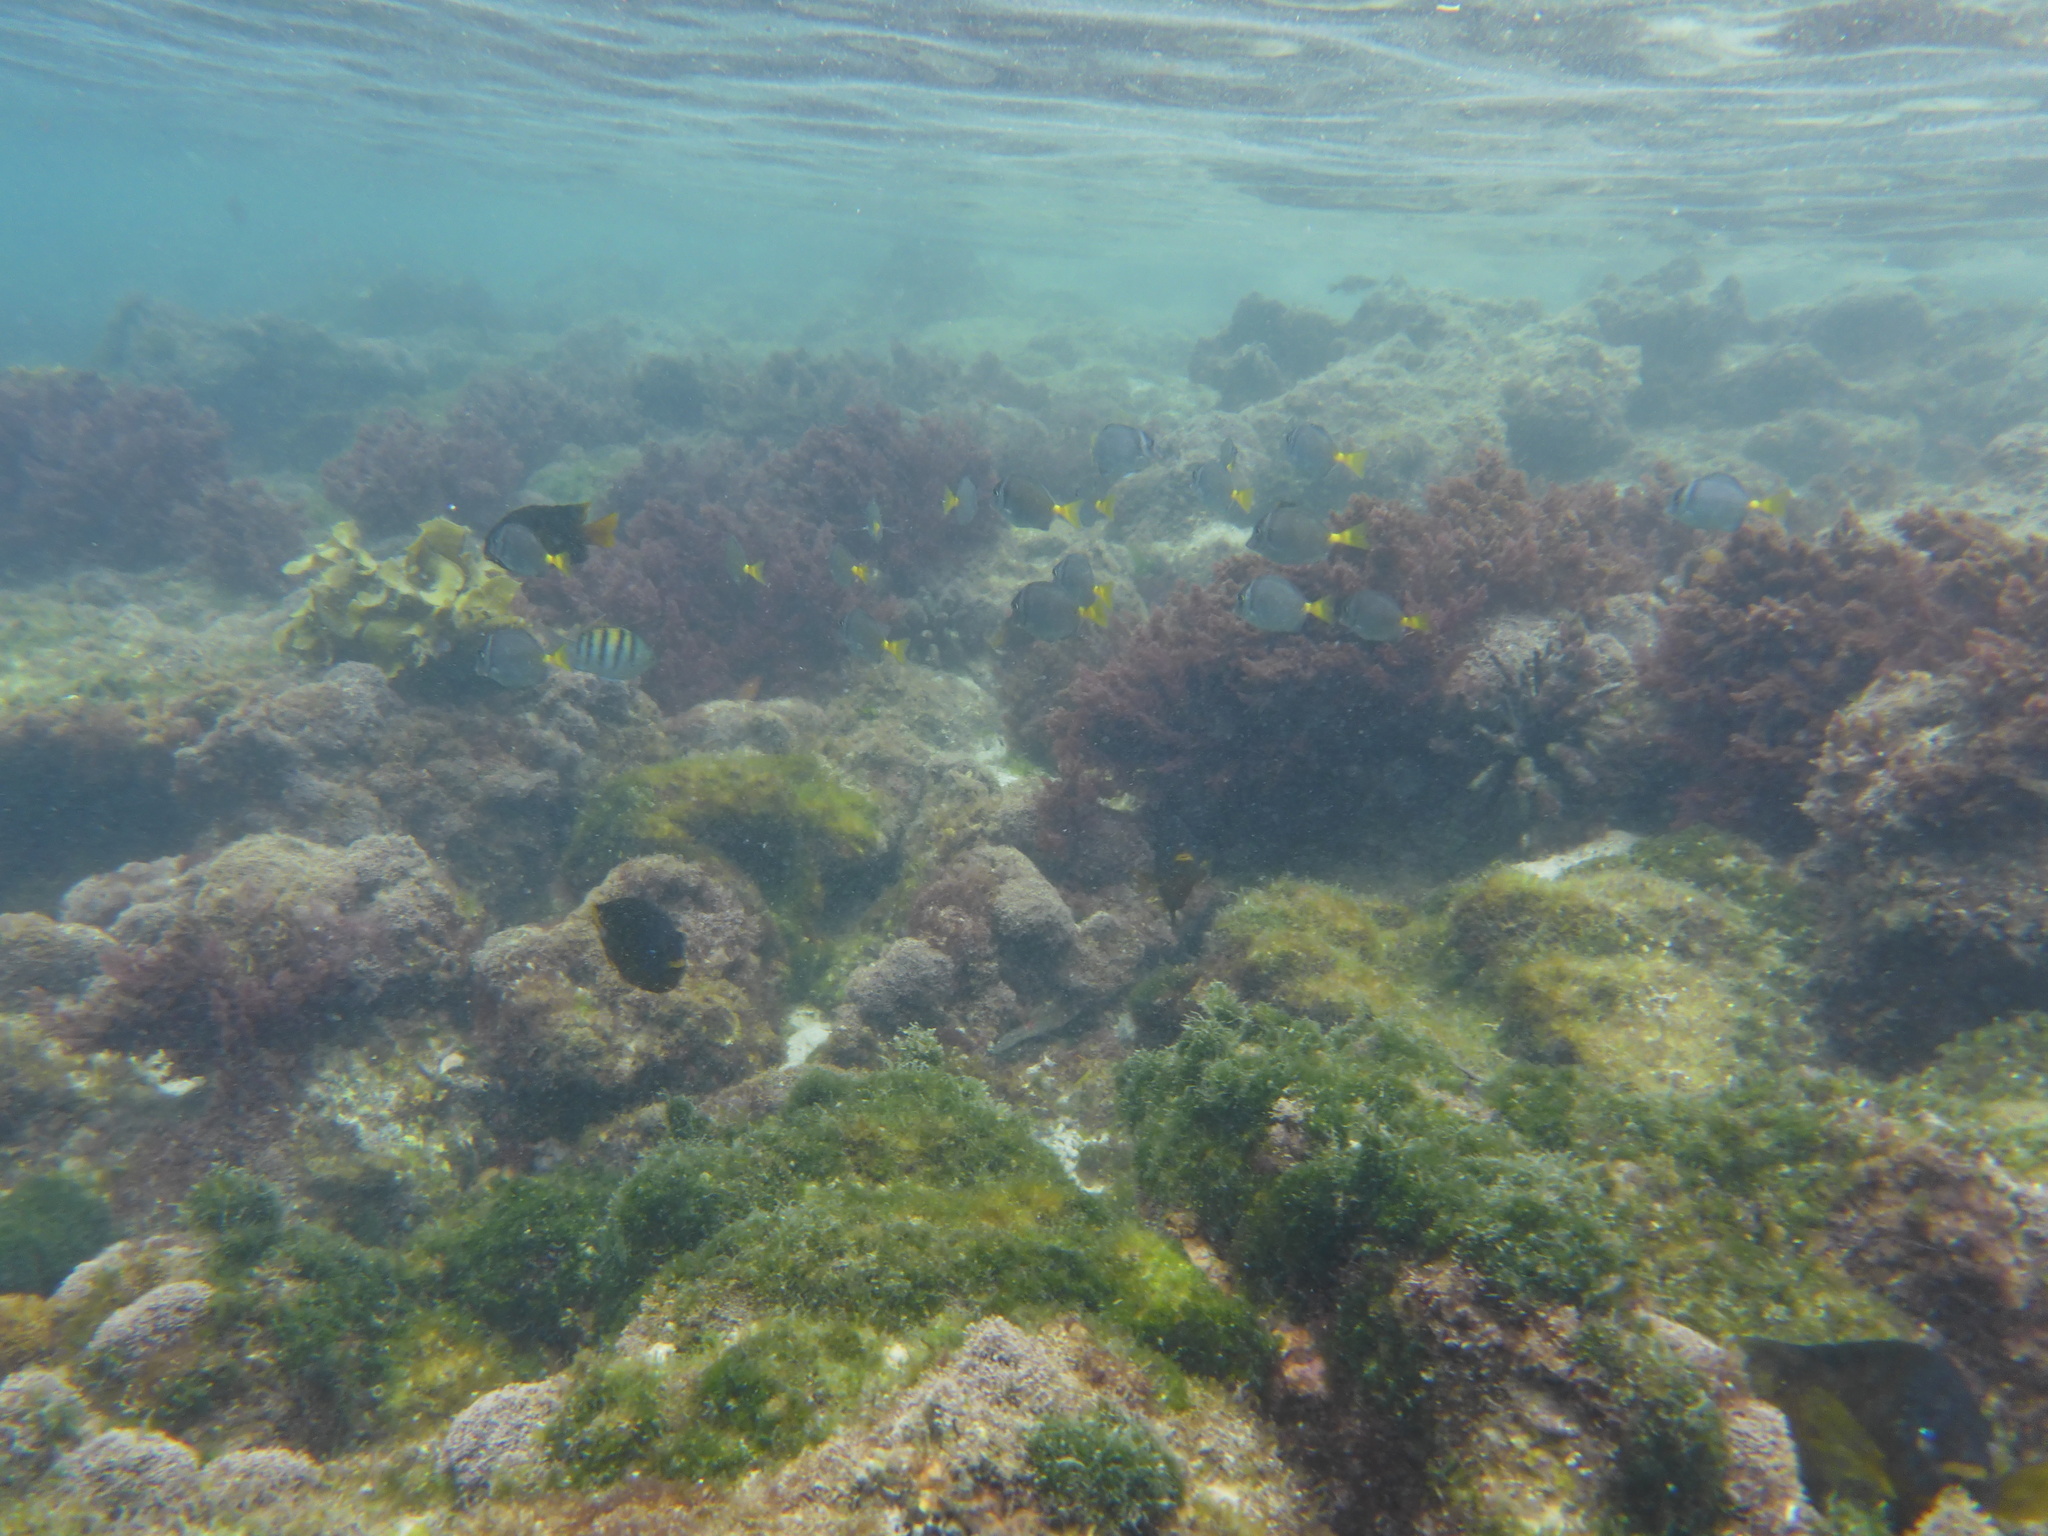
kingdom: Animalia
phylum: Chordata
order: Perciformes
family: Pomacentridae
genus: Abudefduf
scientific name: Abudefduf troschelii
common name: Panamic sergeant major
